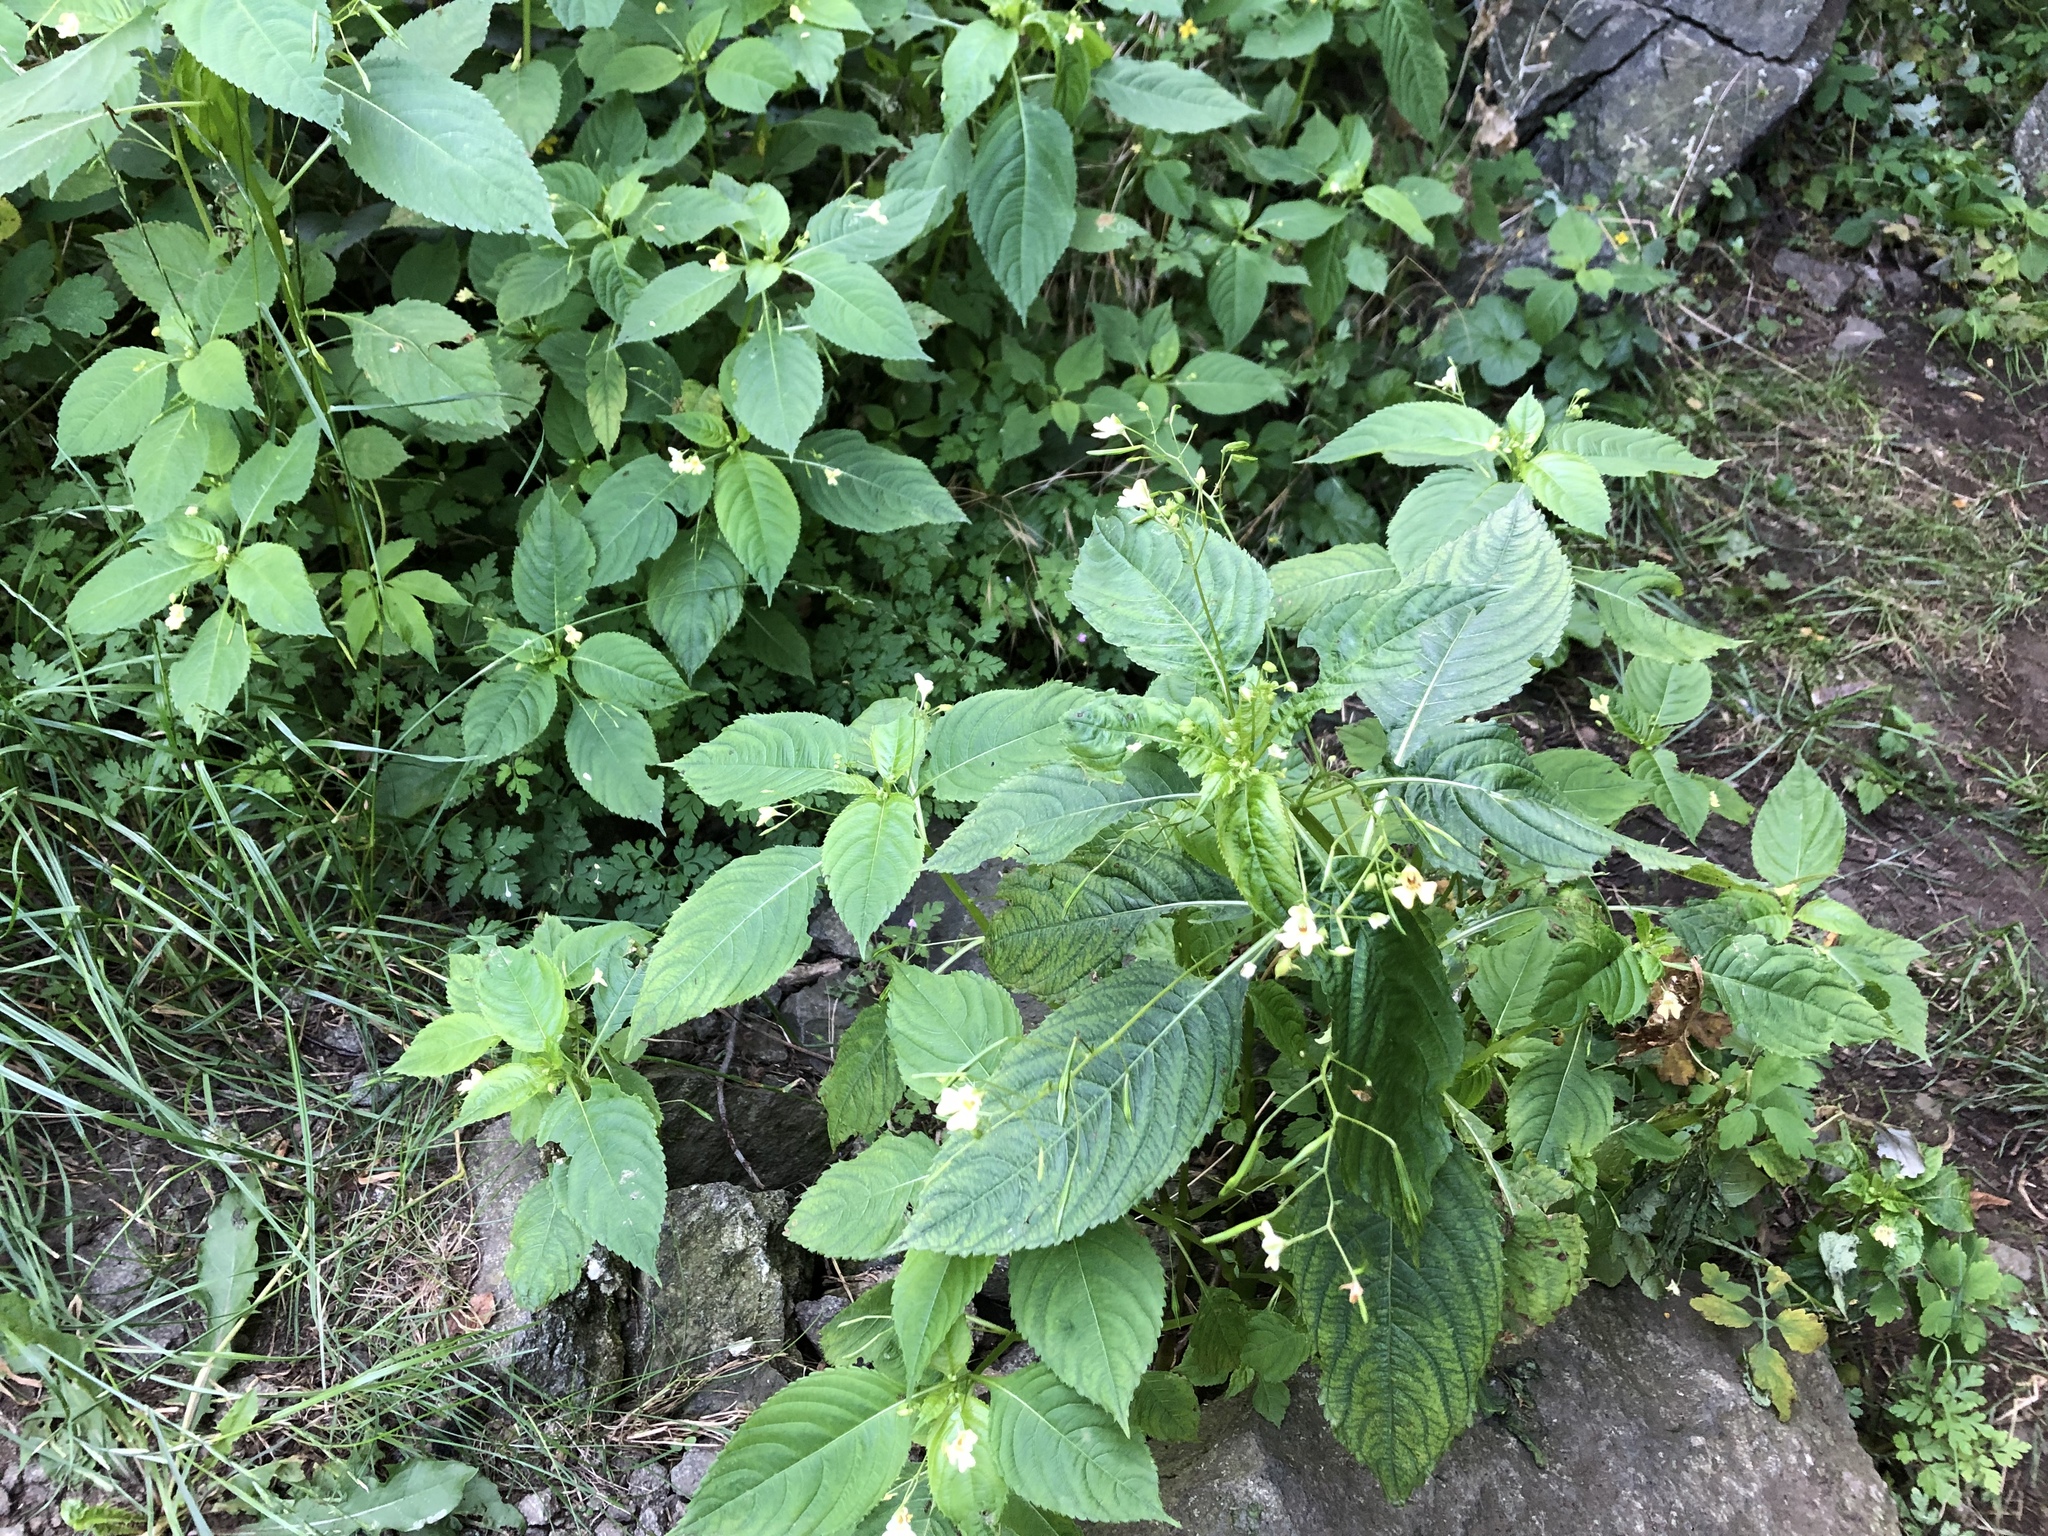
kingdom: Plantae
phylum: Tracheophyta
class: Magnoliopsida
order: Ericales
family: Balsaminaceae
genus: Impatiens
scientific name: Impatiens parviflora
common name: Small balsam
